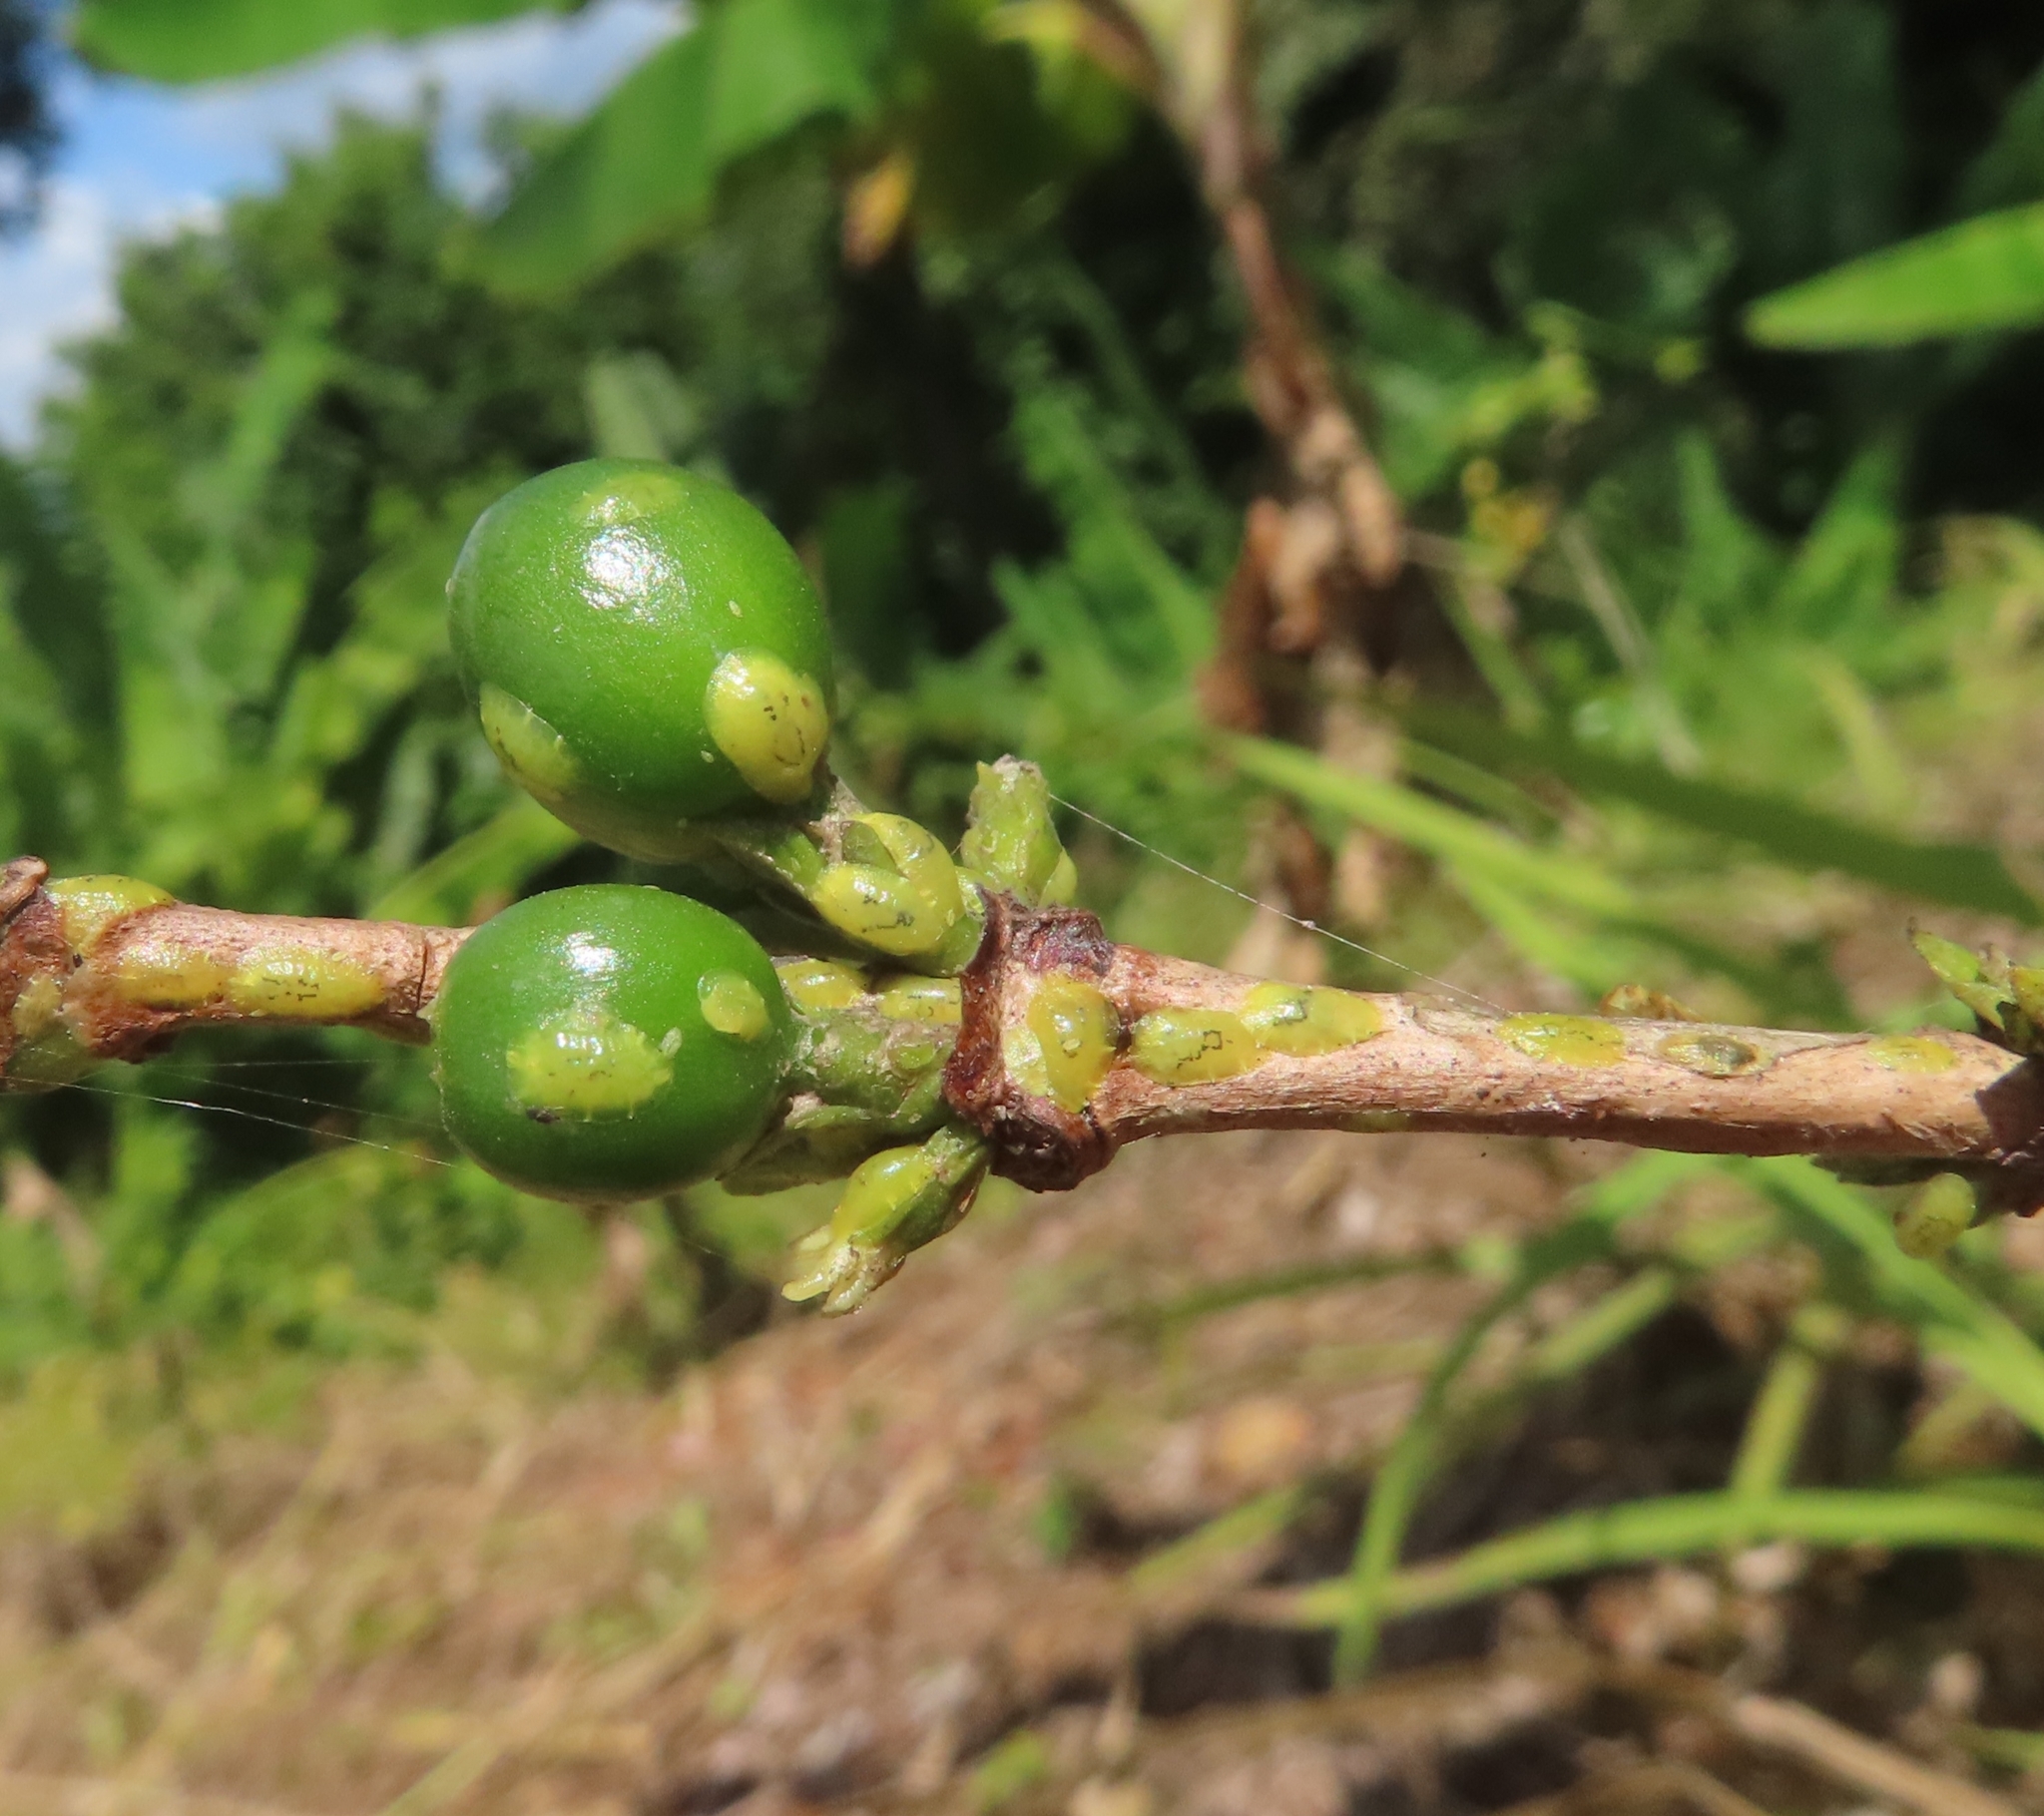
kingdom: Animalia
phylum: Arthropoda
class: Insecta
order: Hemiptera
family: Coccidae
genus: Coccus
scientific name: Coccus viridis
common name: Green scale
